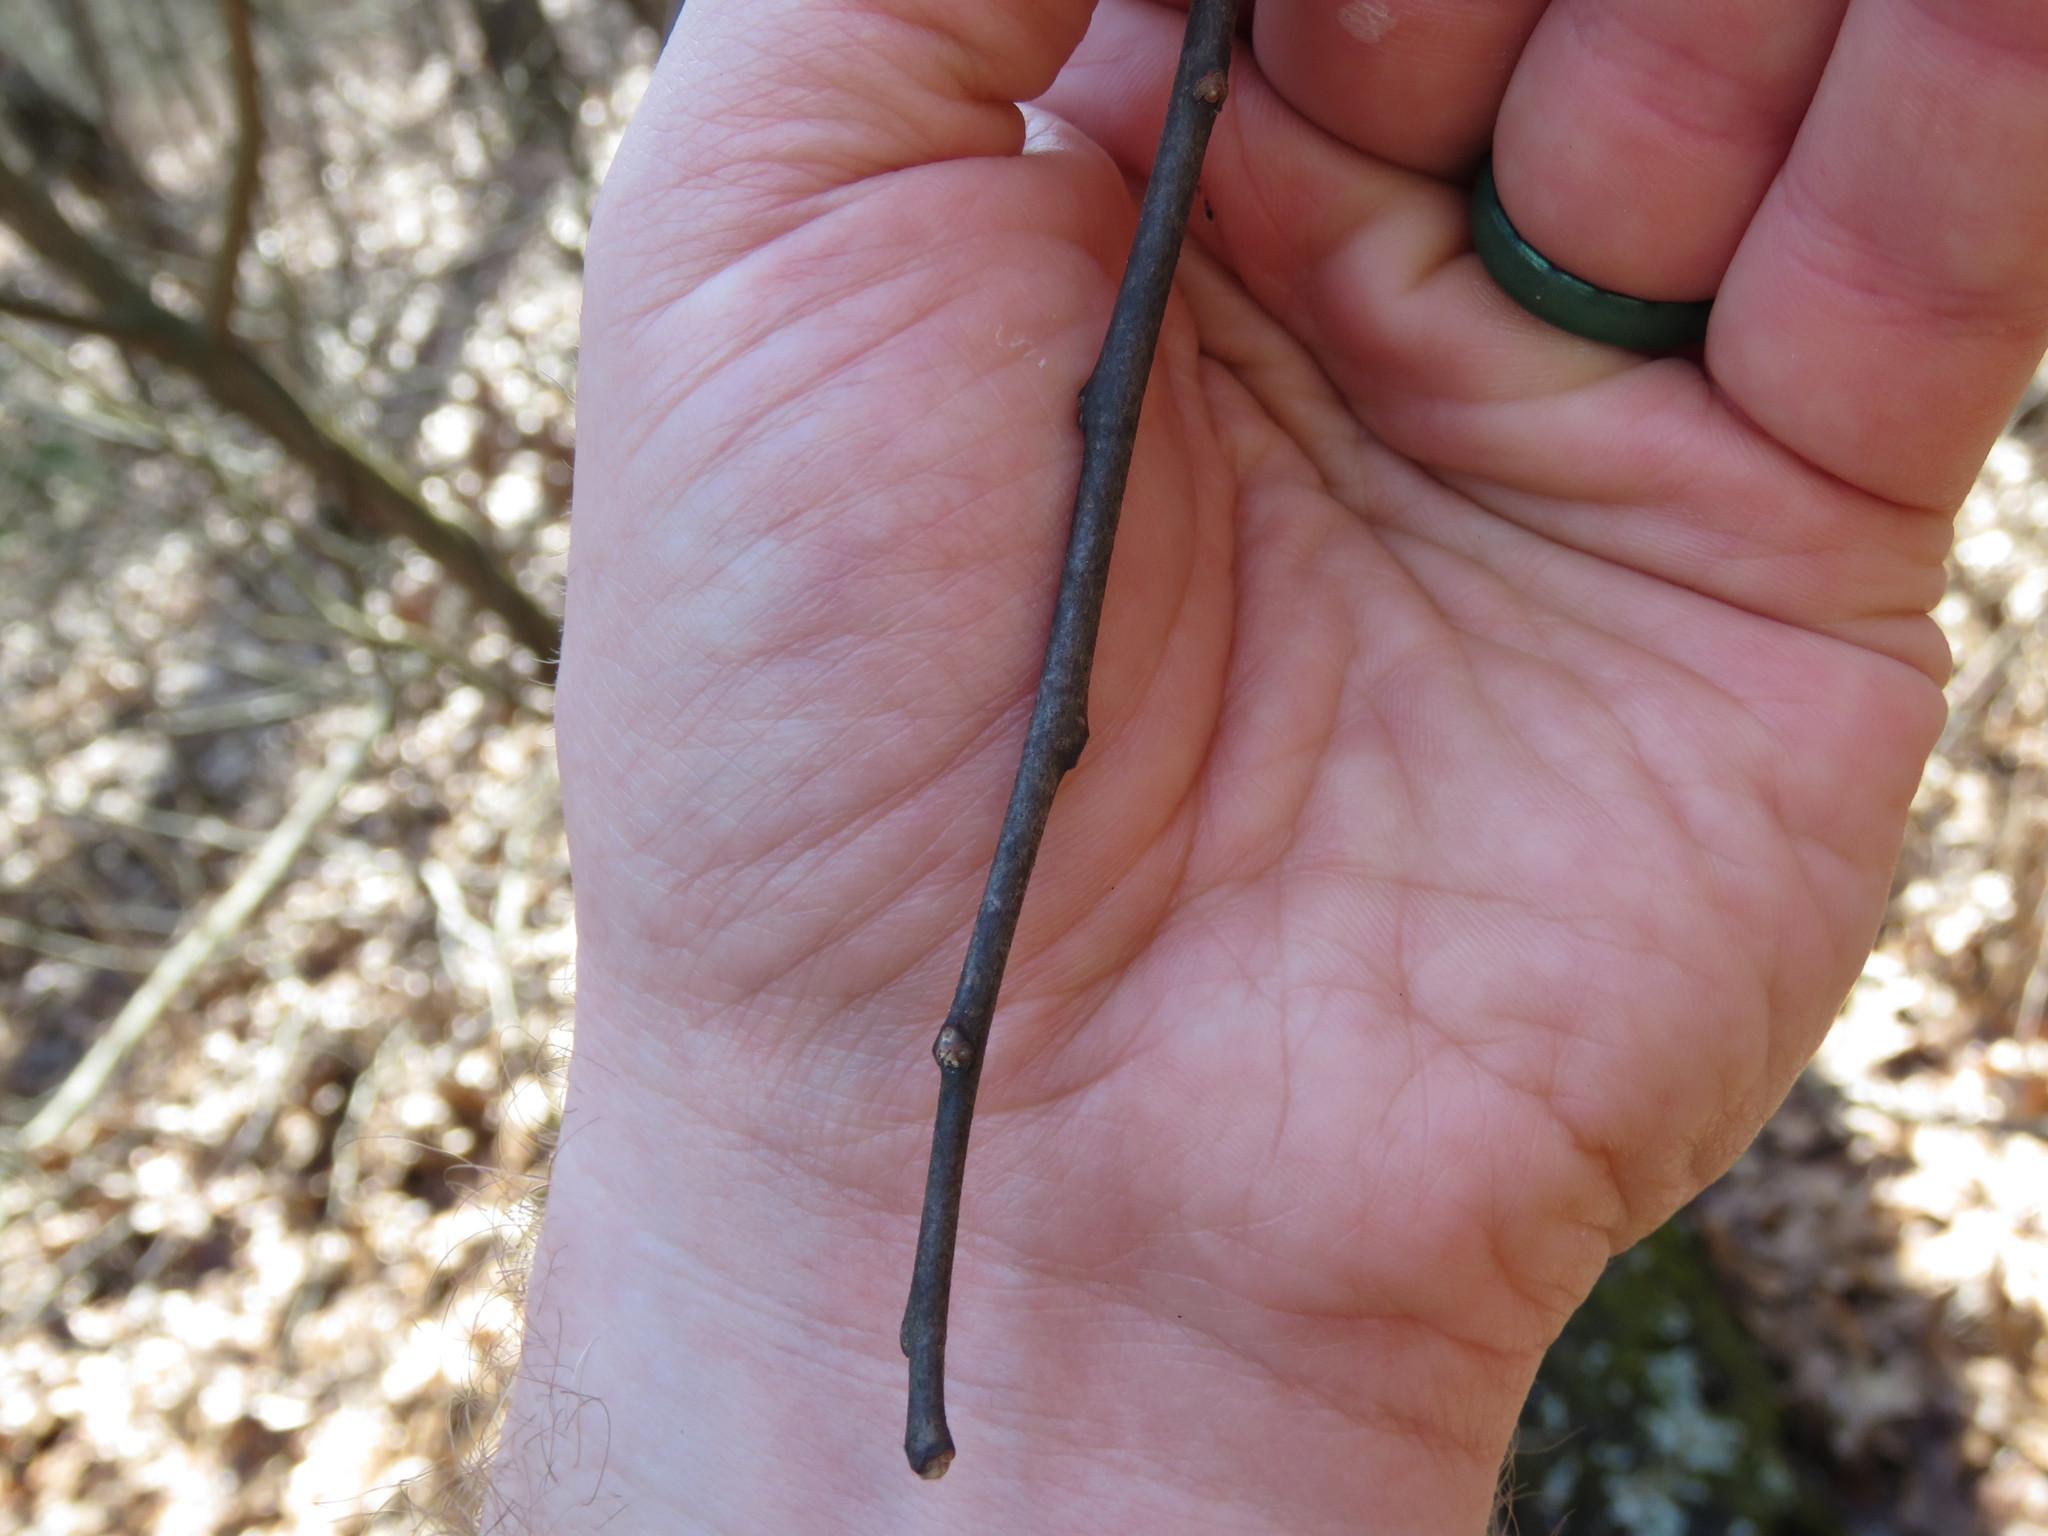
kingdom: Plantae
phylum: Tracheophyta
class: Magnoliopsida
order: Sapindales
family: Rutaceae
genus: Ptelea
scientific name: Ptelea trifoliata
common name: Common hop-tree
